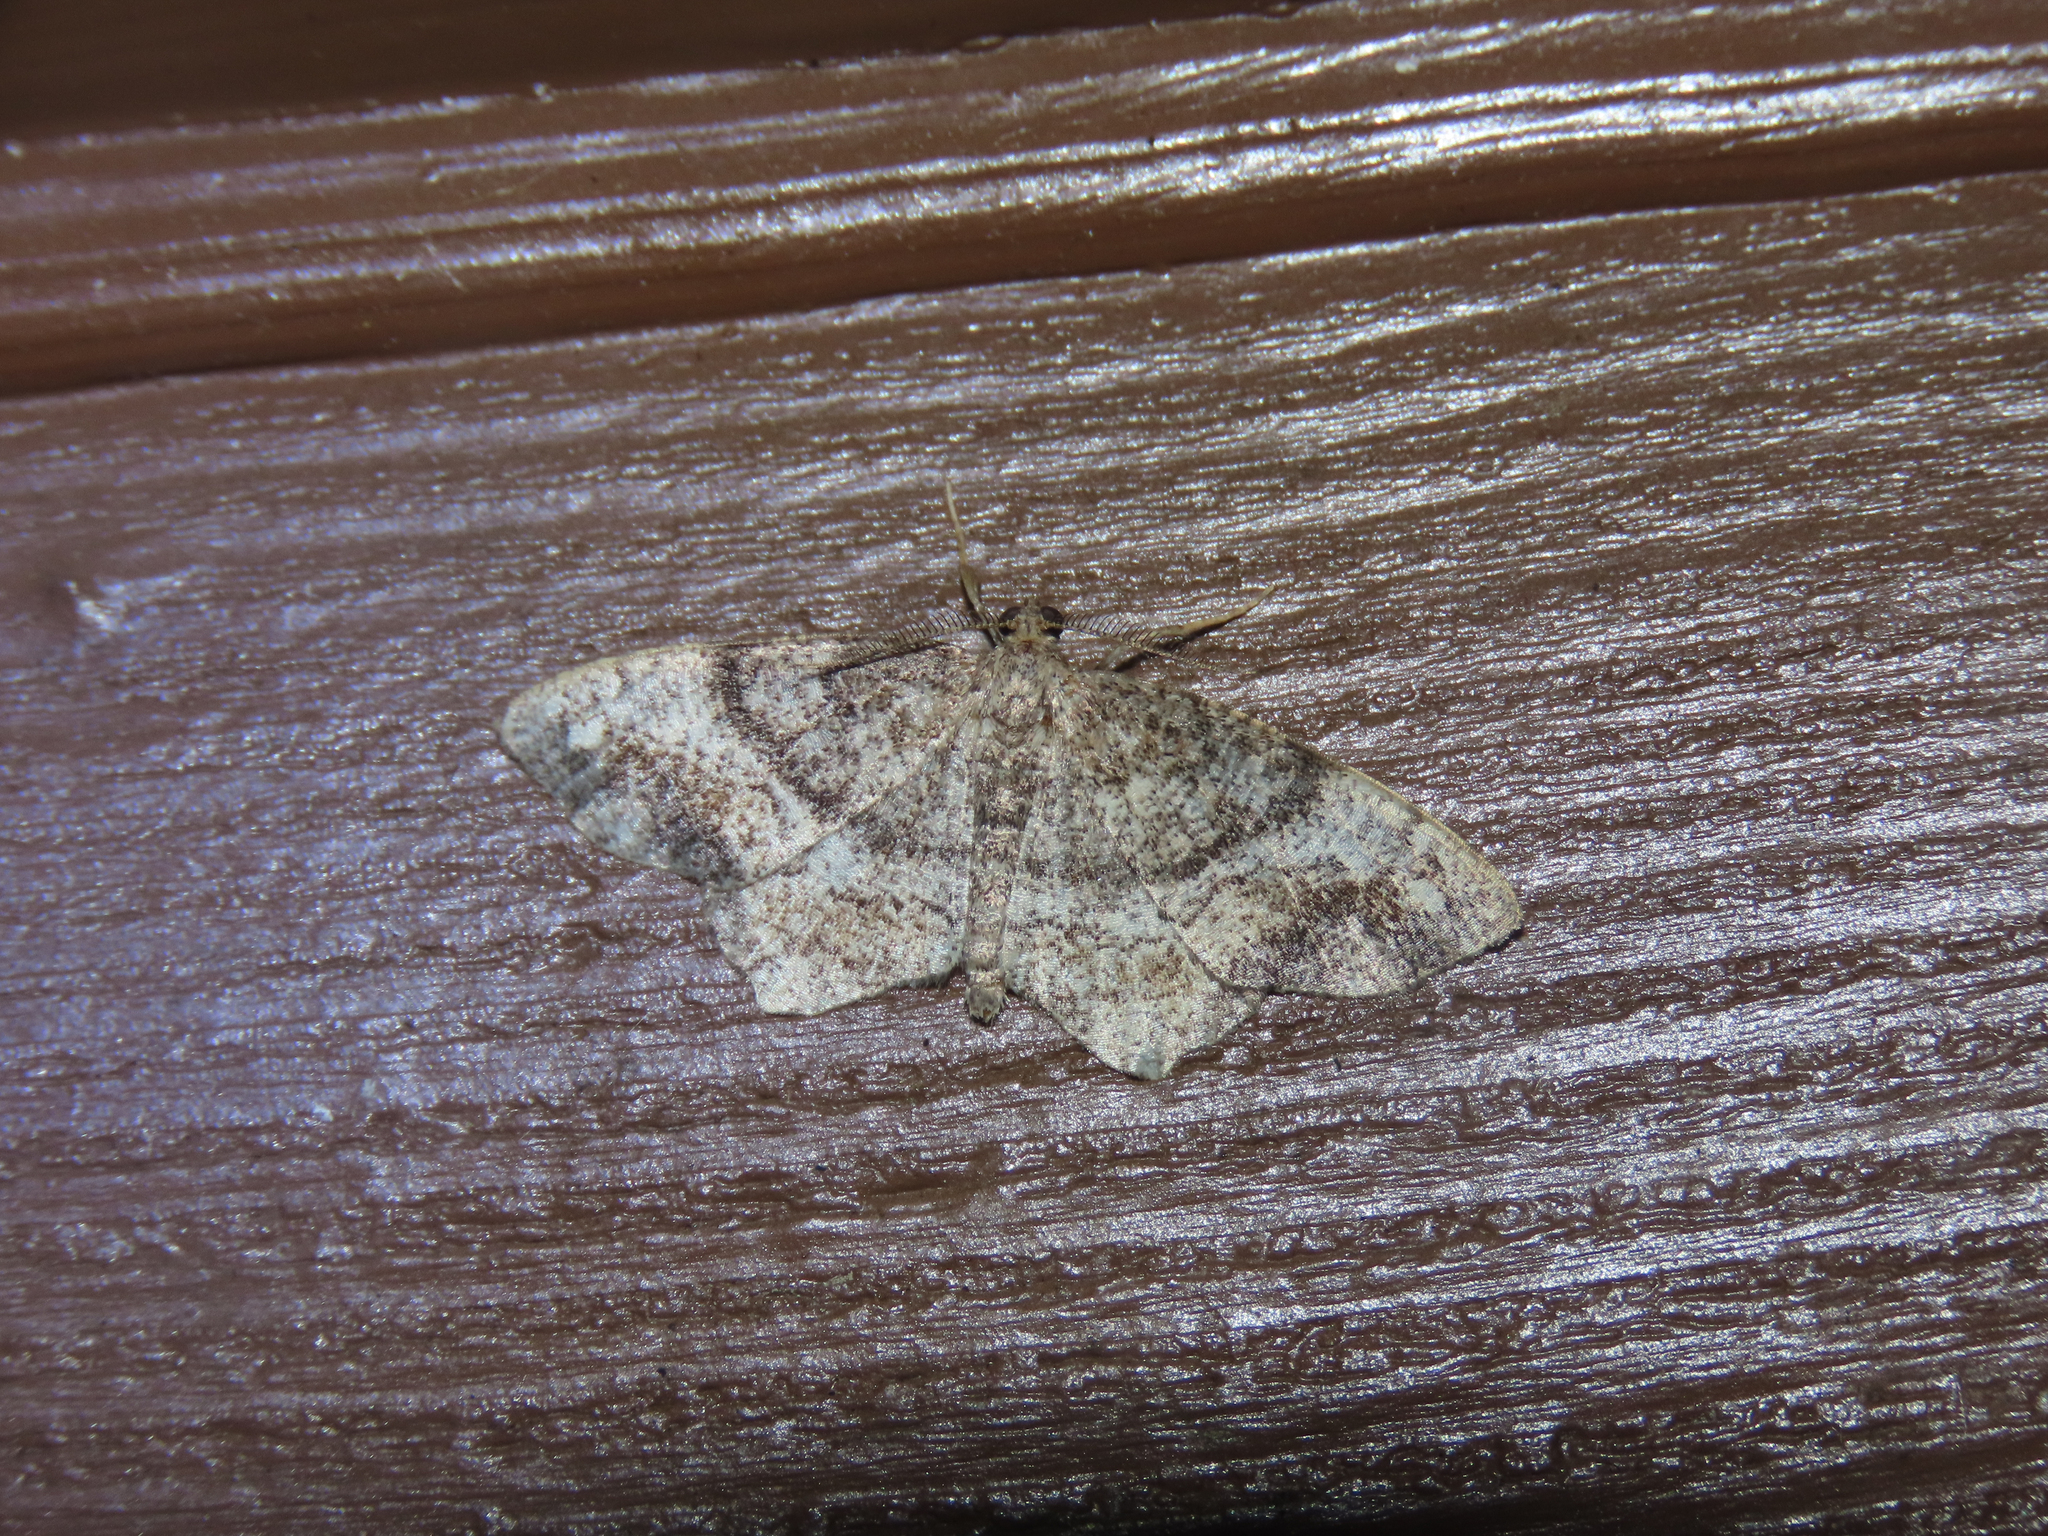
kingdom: Animalia
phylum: Arthropoda
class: Insecta
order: Lepidoptera
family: Geometridae
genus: Hypagyrtis
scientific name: Hypagyrtis unipunctata
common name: One-spotted variant
